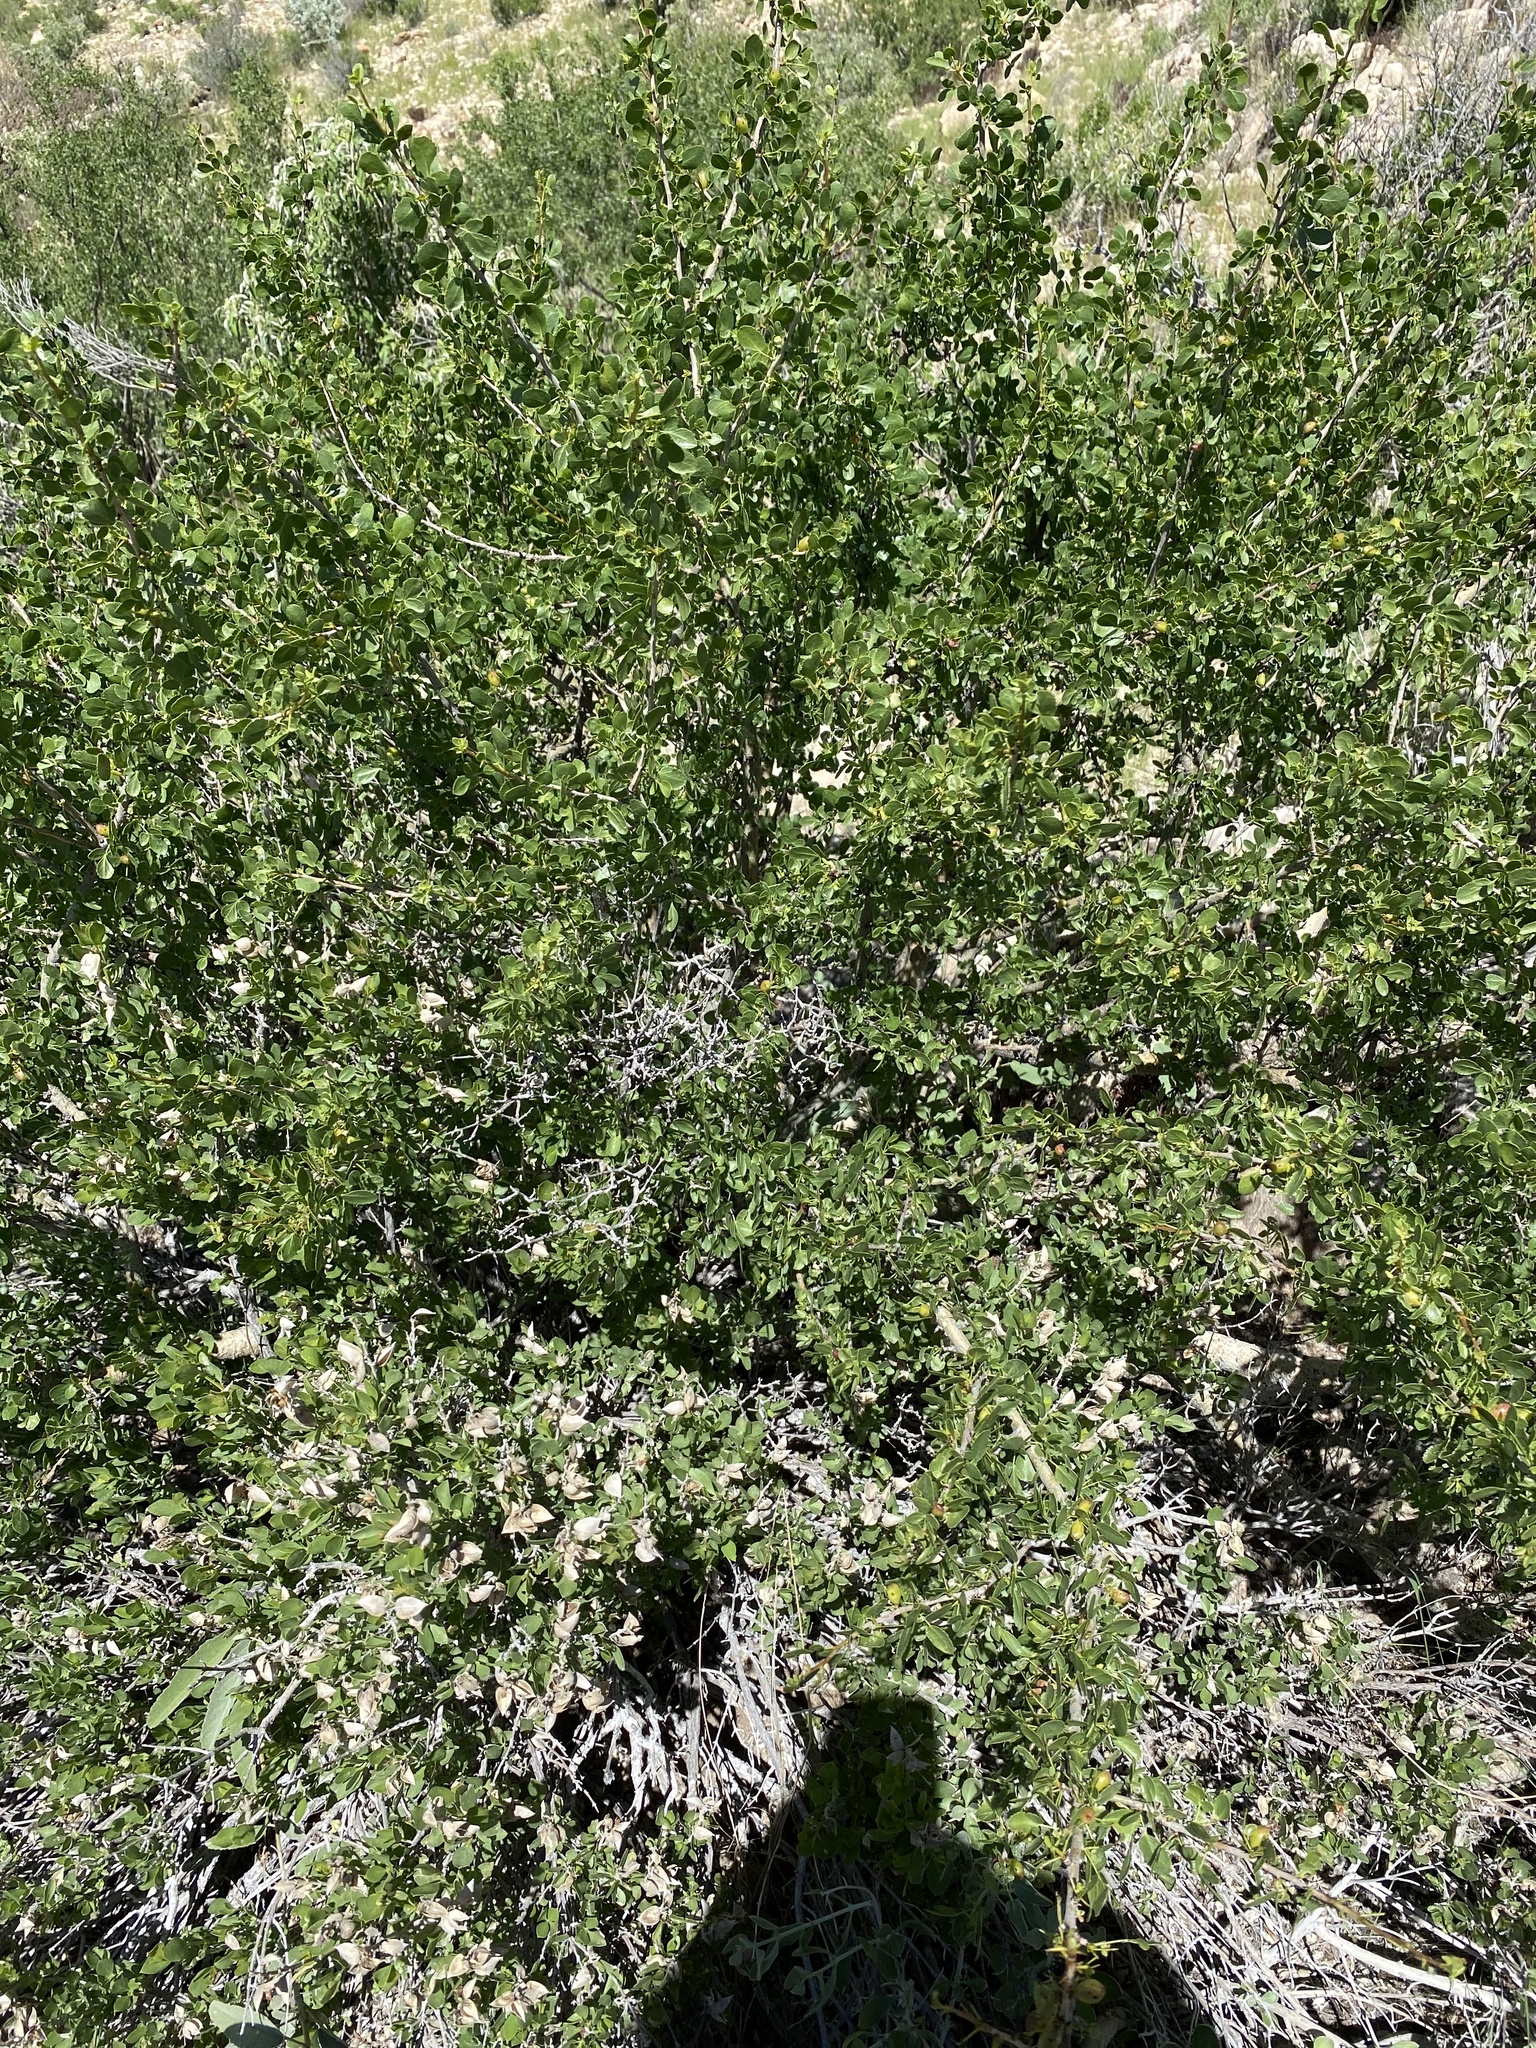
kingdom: Plantae
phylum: Tracheophyta
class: Magnoliopsida
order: Sapindales
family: Burseraceae
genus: Commiphora
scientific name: Commiphora tenuipetiolata
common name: Satin-bark corkwood
